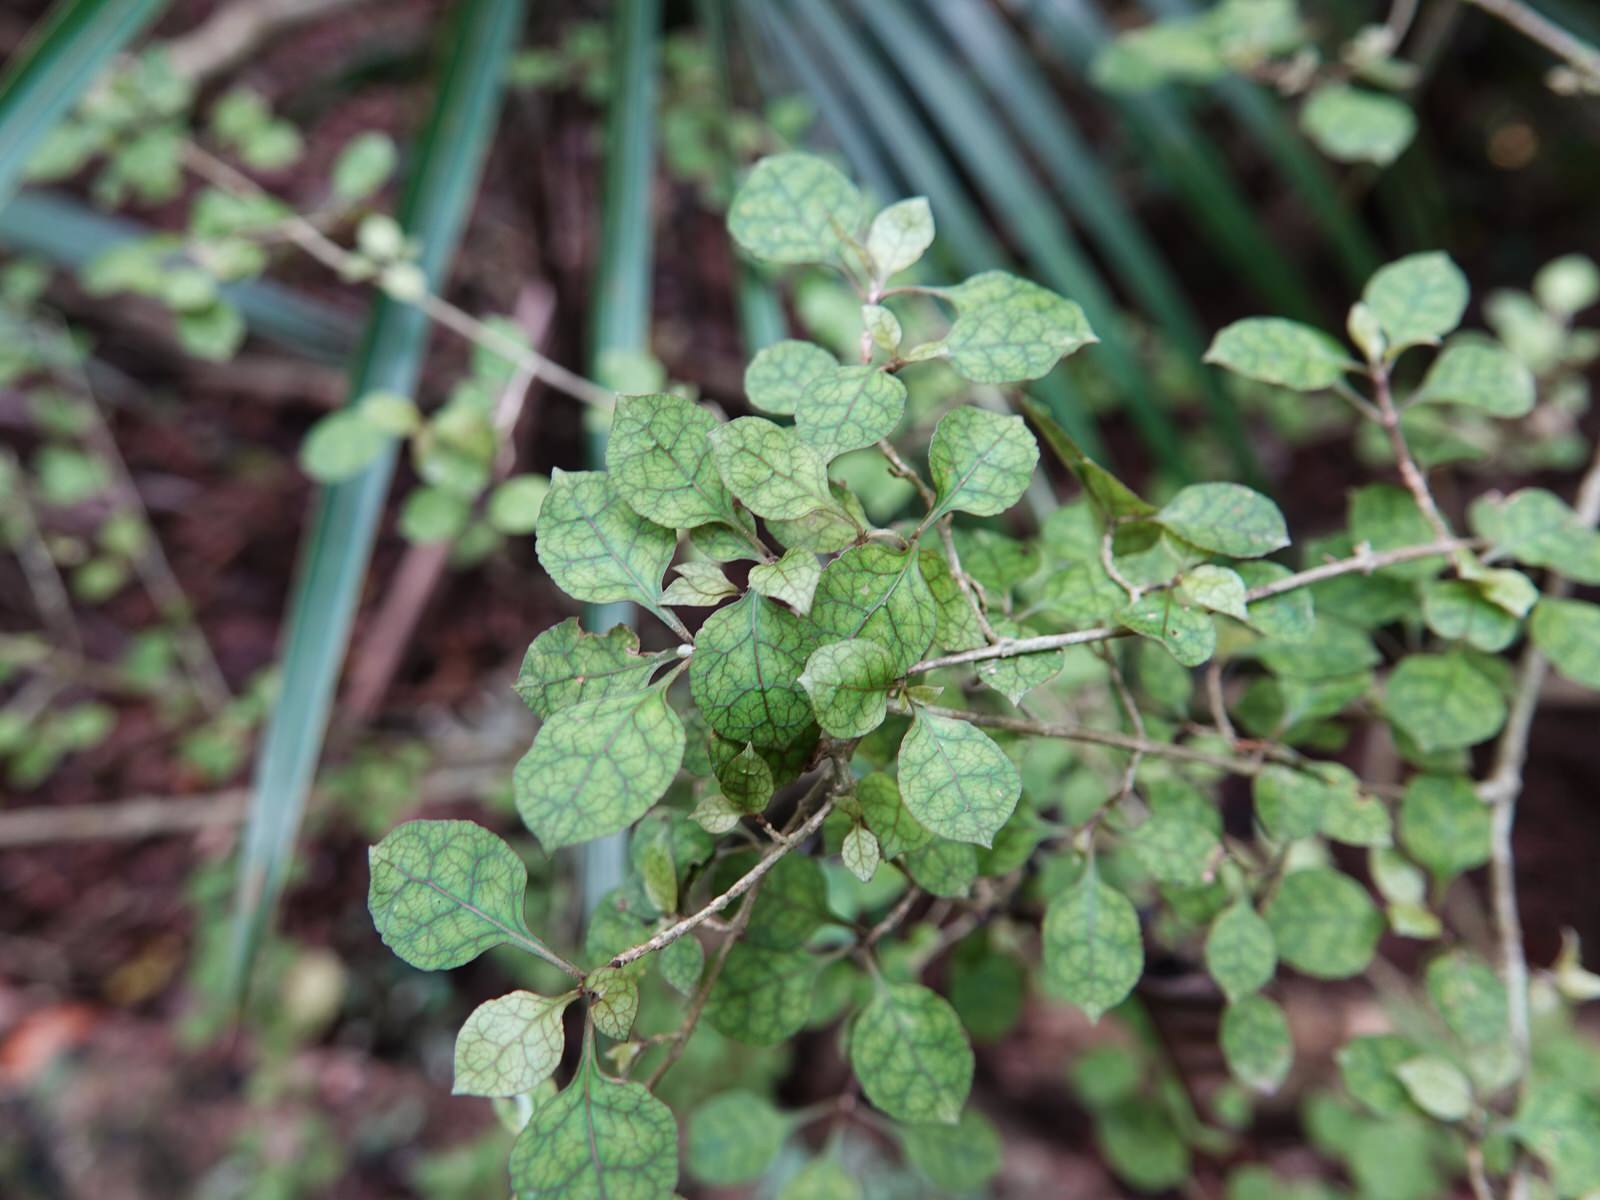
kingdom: Plantae
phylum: Tracheophyta
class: Magnoliopsida
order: Gentianales
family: Rubiaceae
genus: Coprosma
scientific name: Coprosma areolata
